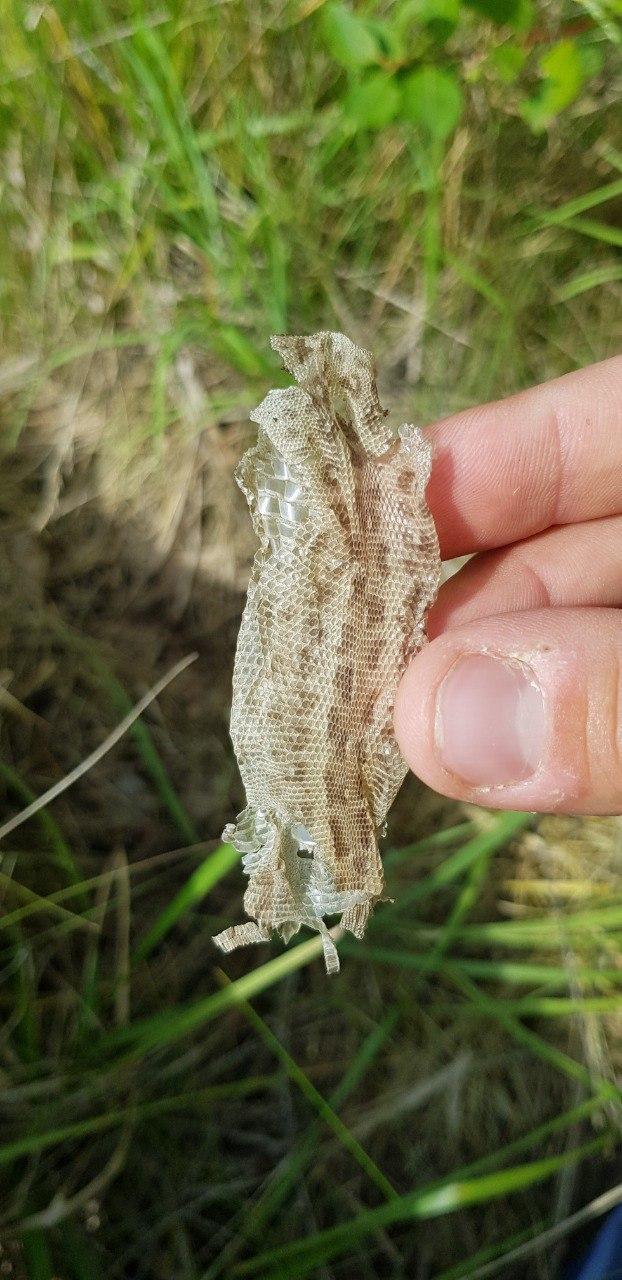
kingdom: Animalia
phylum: Chordata
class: Squamata
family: Lacertidae
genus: Lacerta
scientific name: Lacerta agilis
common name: Sand lizard
